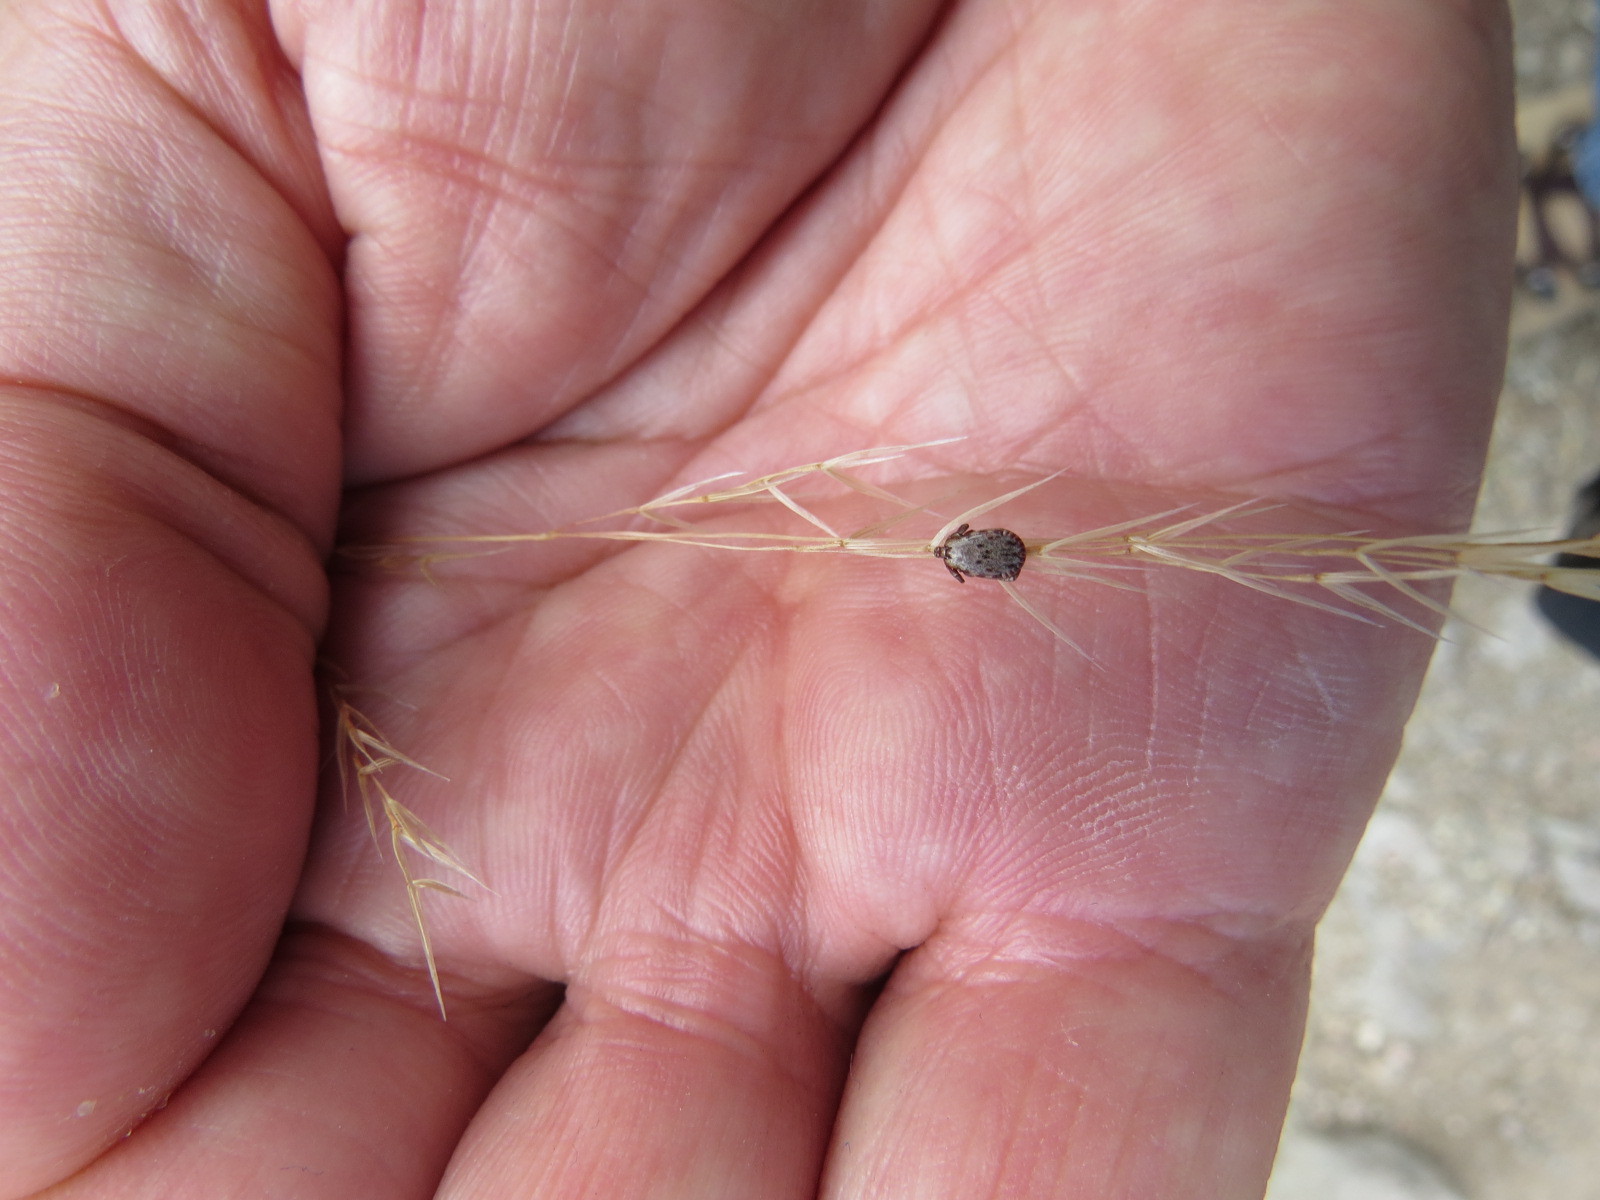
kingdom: Animalia
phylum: Arthropoda
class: Arachnida
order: Ixodida
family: Ixodidae
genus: Dermacentor
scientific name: Dermacentor occidentalis
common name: Net tick
